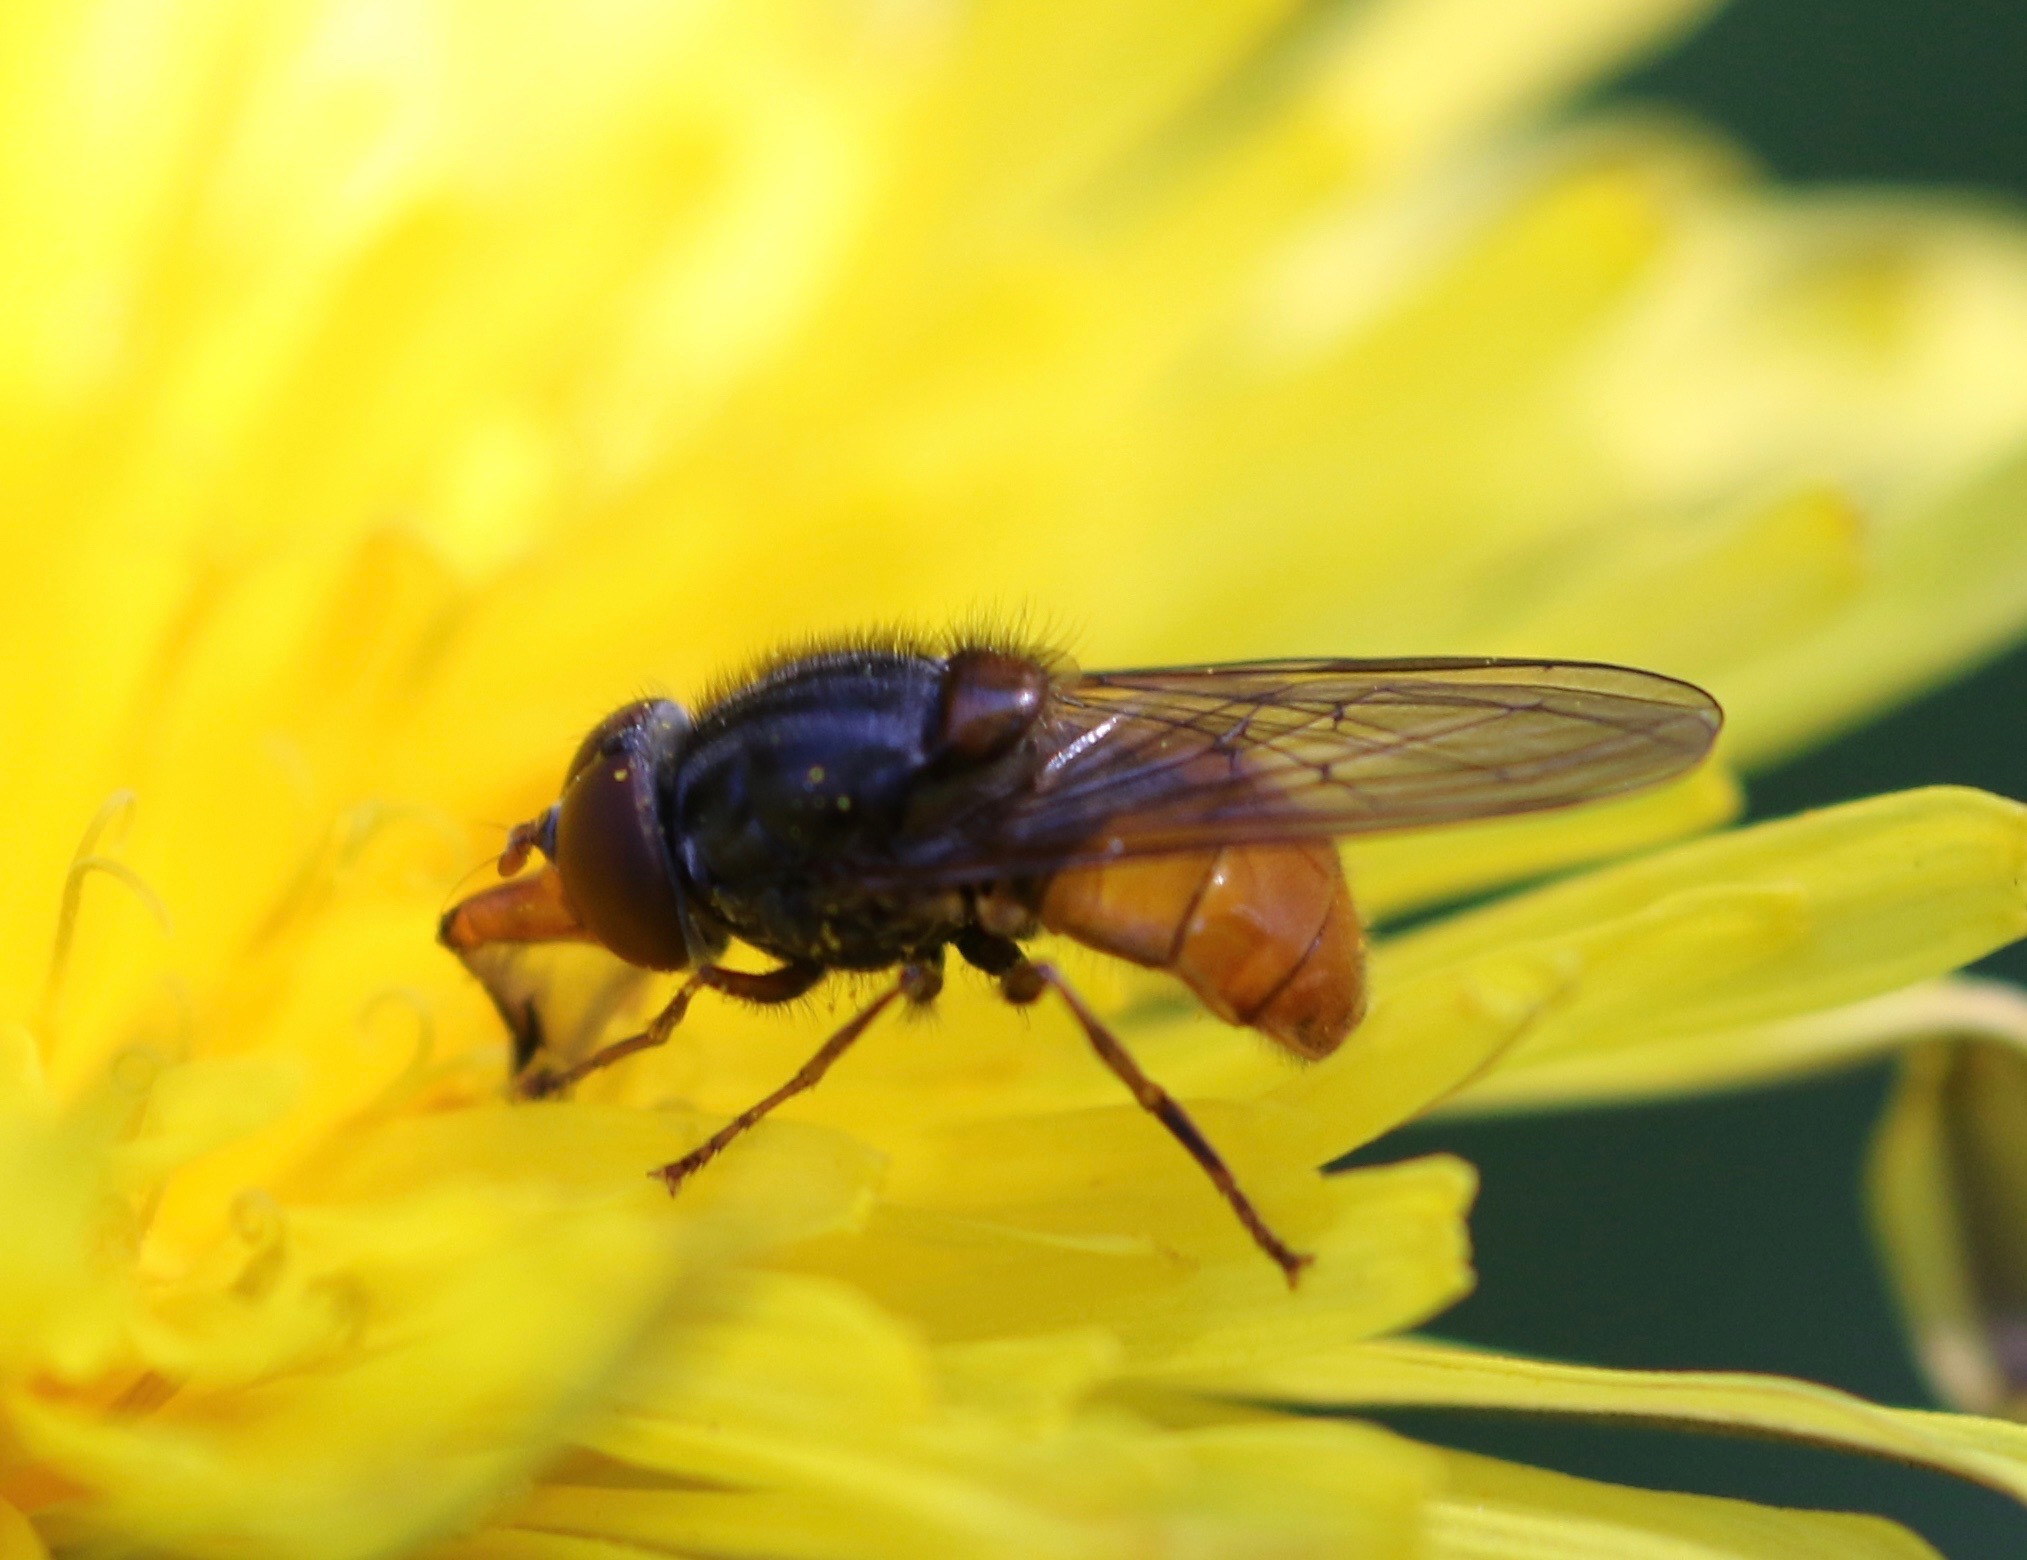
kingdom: Animalia
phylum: Arthropoda
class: Insecta
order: Diptera
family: Syrphidae
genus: Rhingia
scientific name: Rhingia campestris
